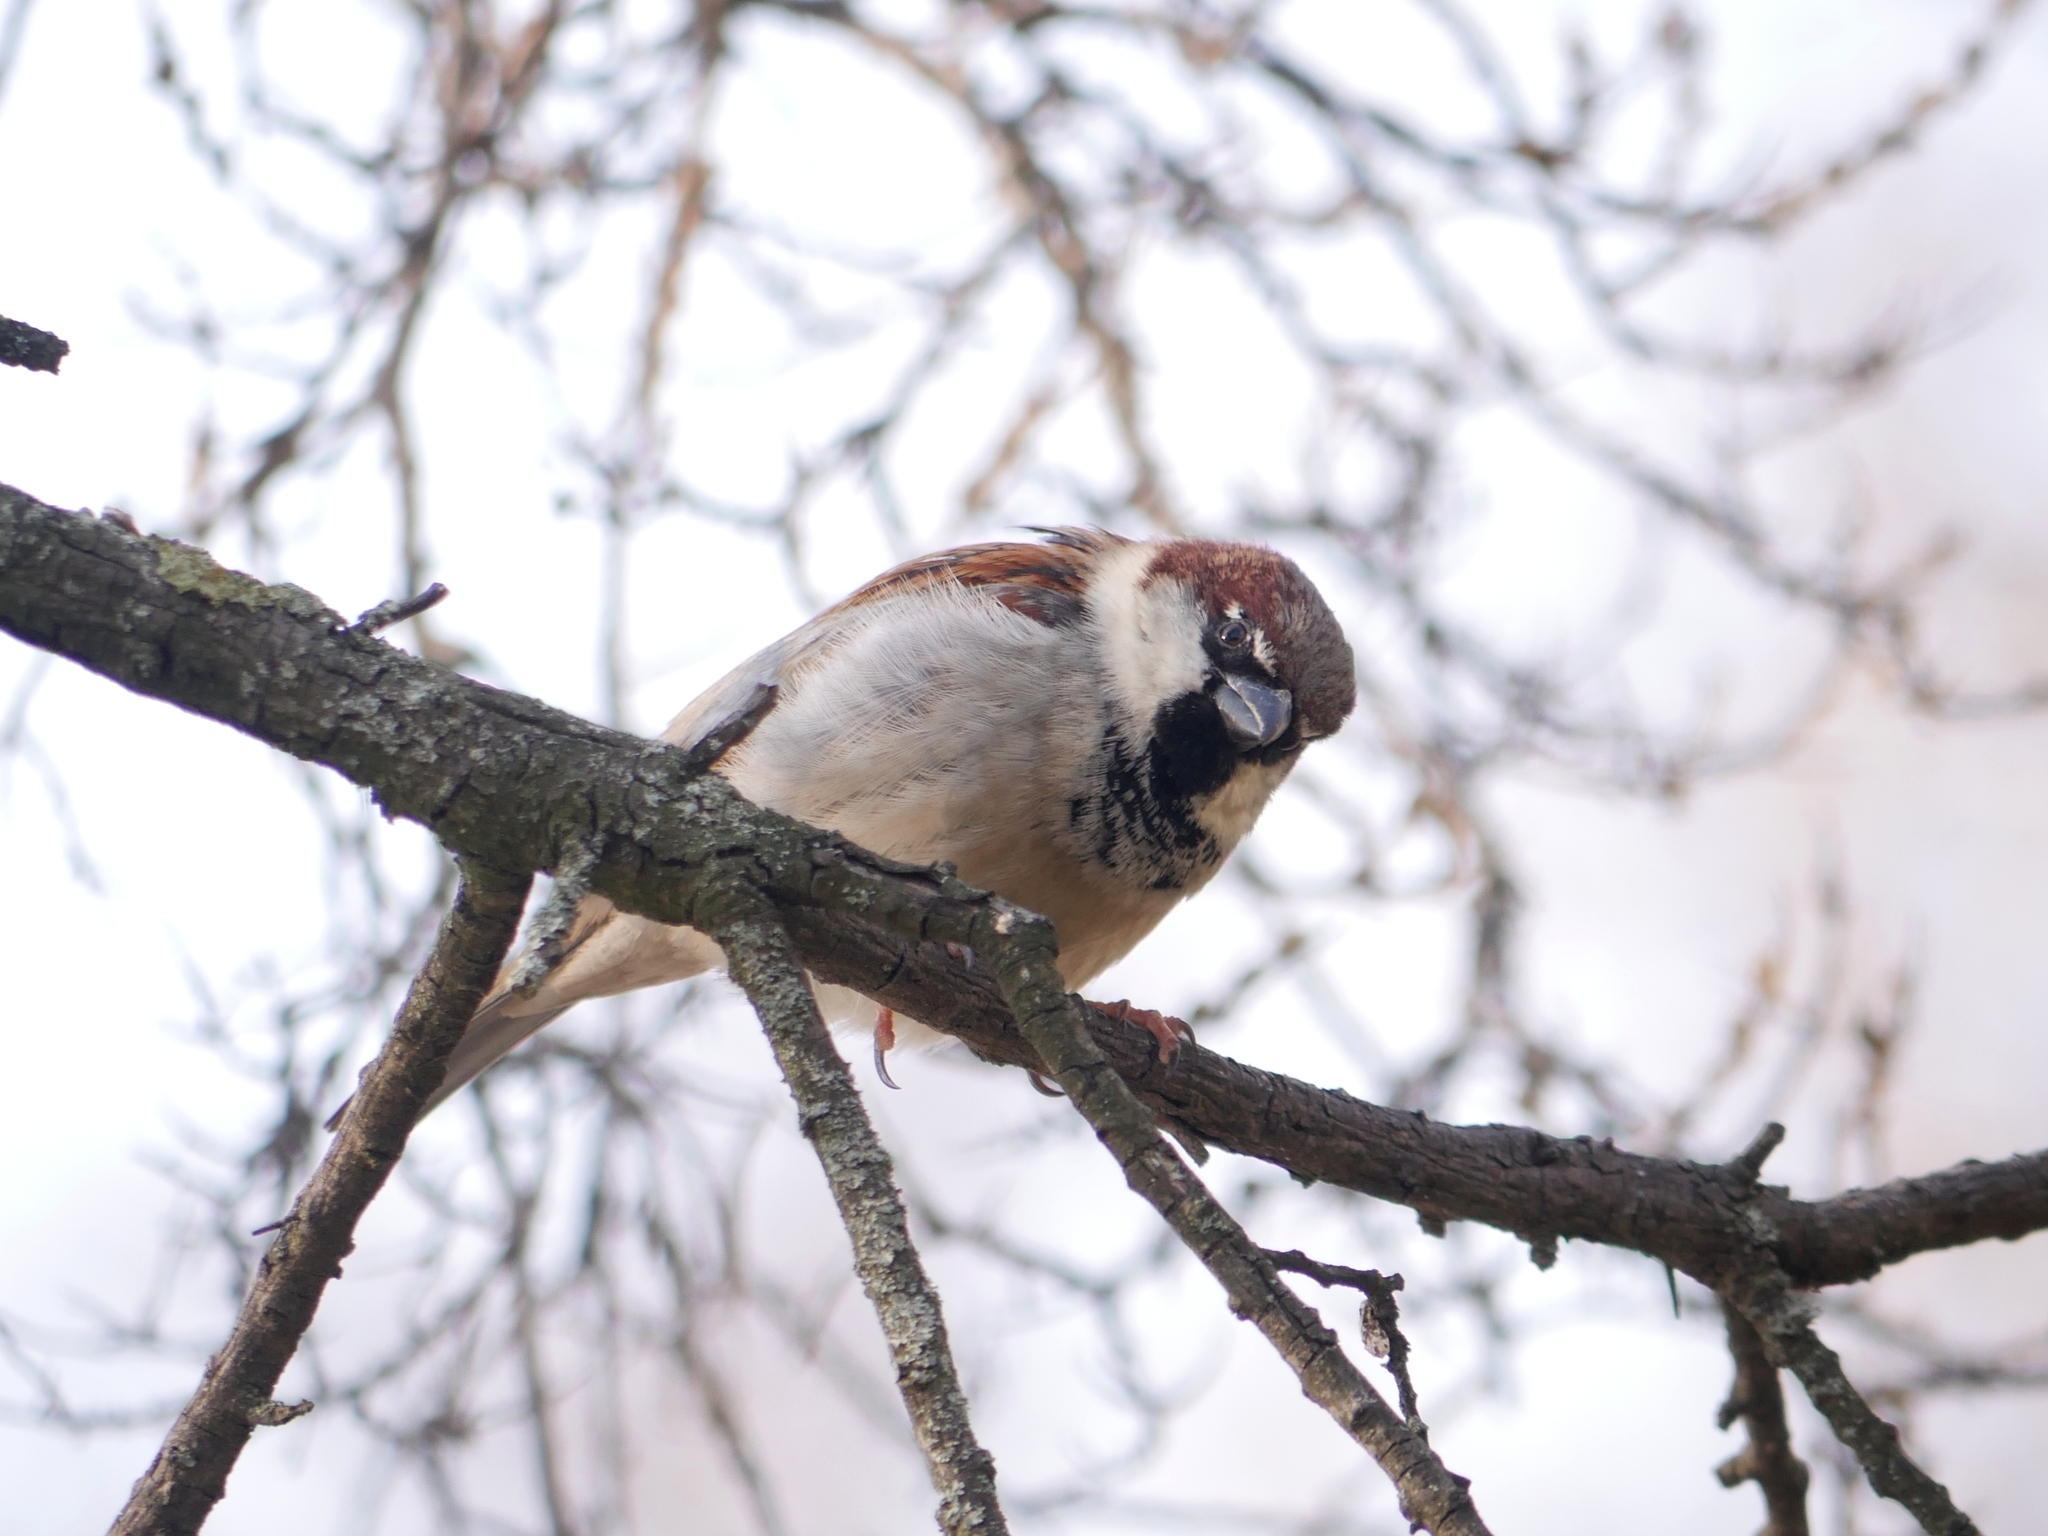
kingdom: Animalia
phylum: Chordata
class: Aves
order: Passeriformes
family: Passeridae
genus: Passer
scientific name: Passer domesticus
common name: House sparrow
